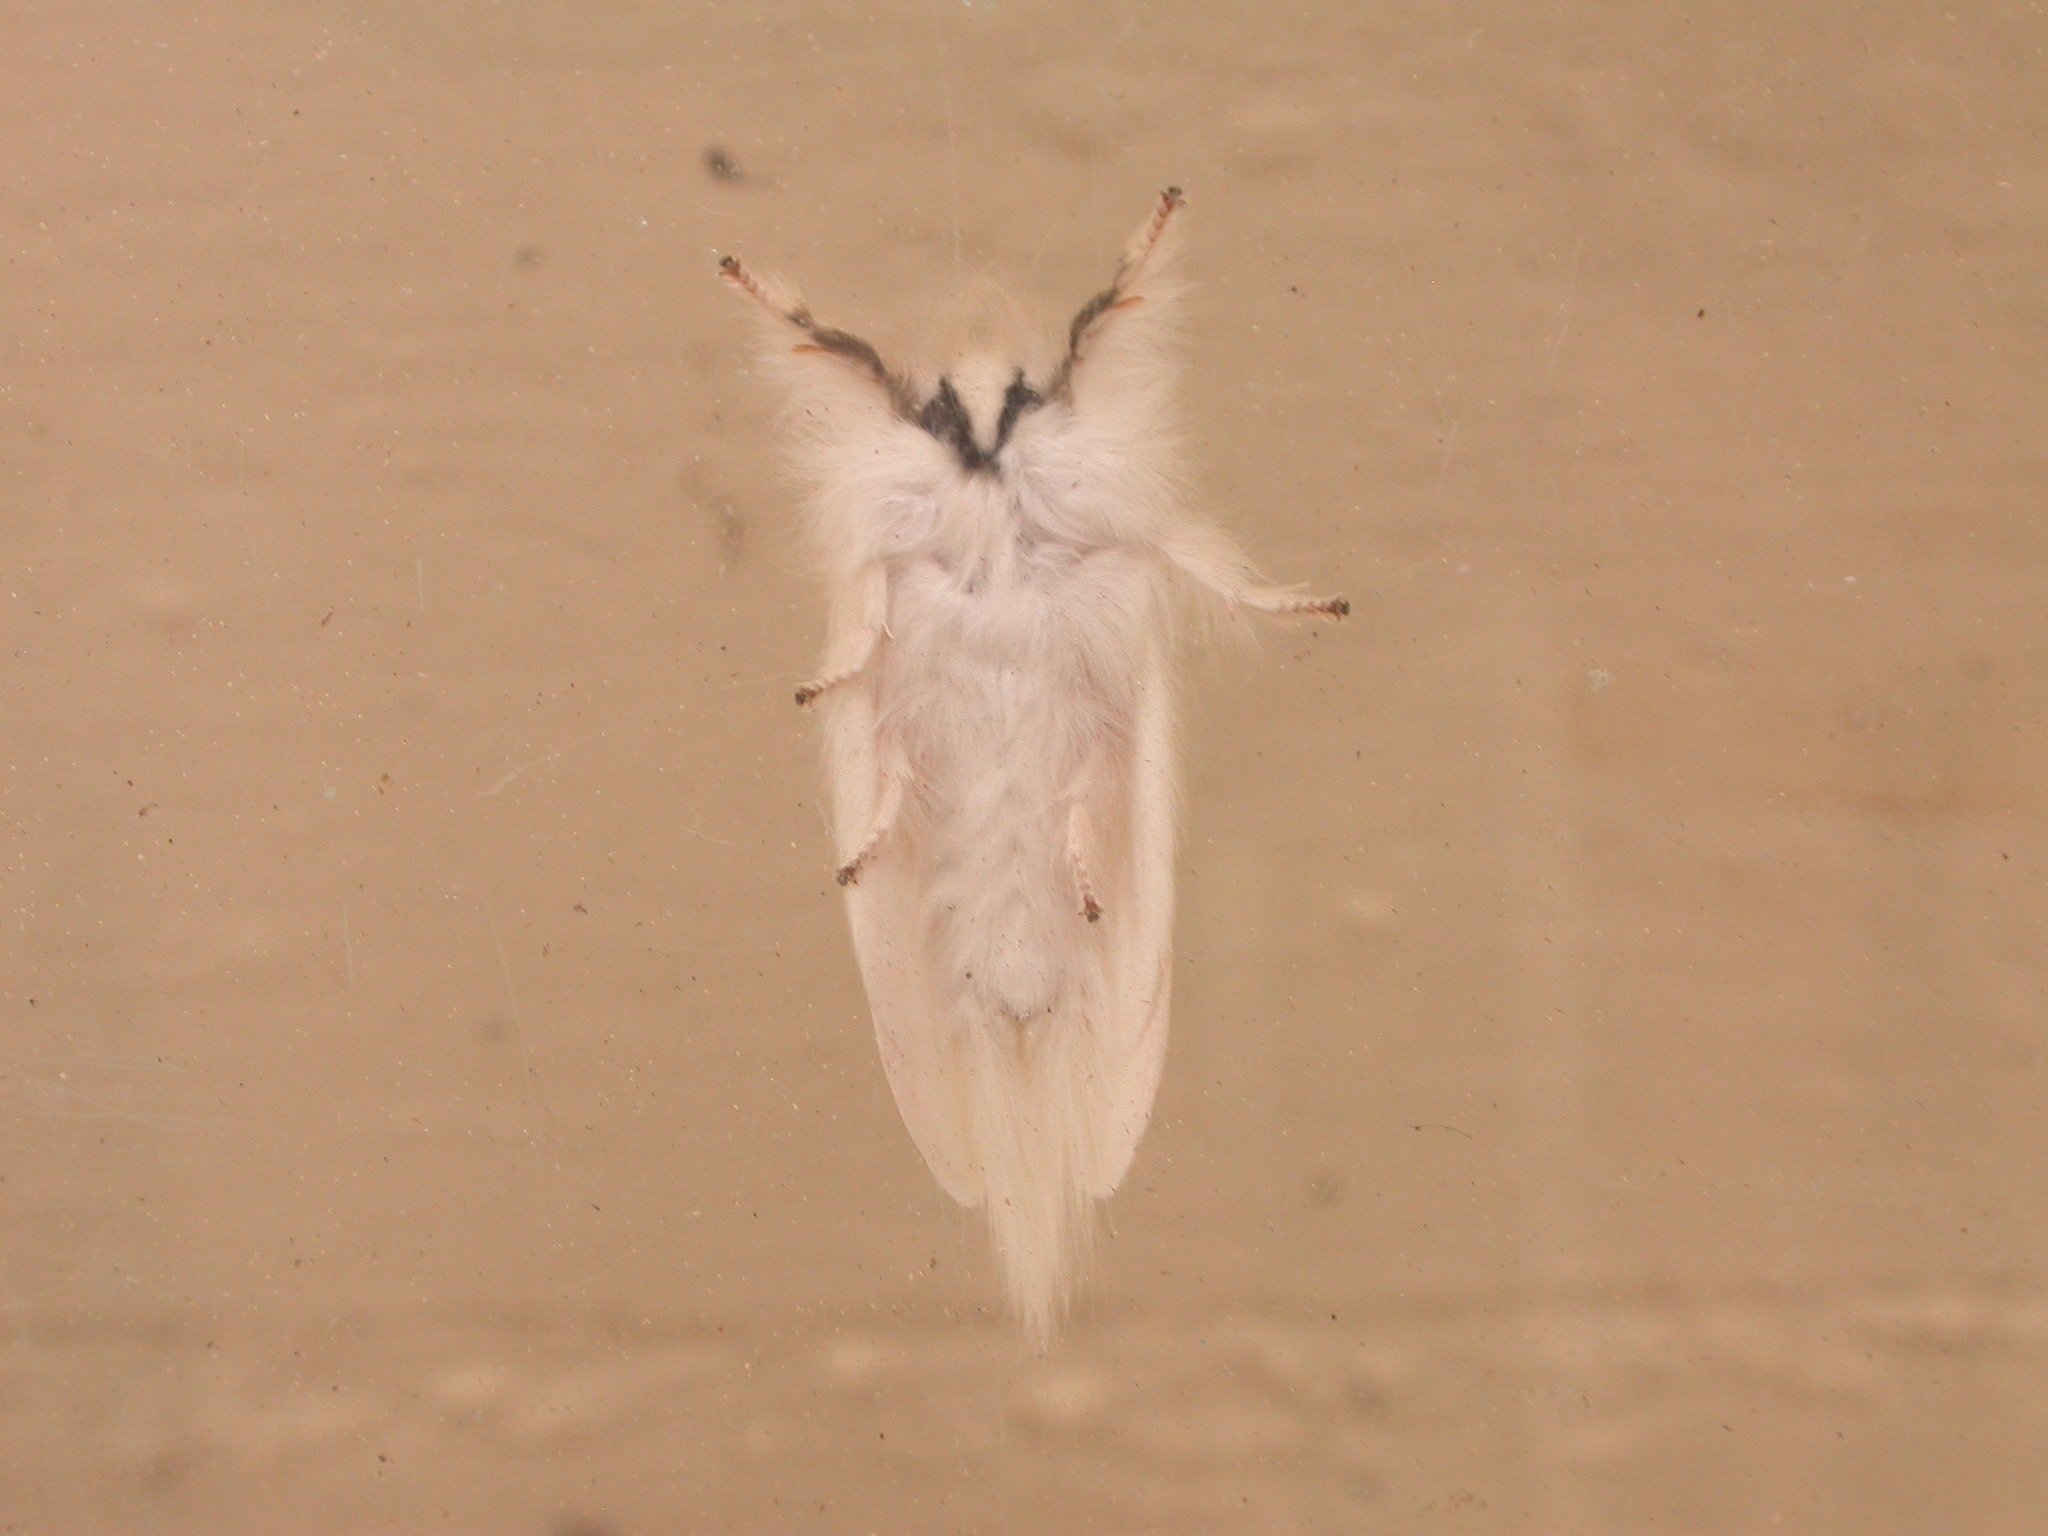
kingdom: Animalia
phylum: Arthropoda
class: Insecta
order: Lepidoptera
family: Notodontidae
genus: Trichiocercus
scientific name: Trichiocercus sparshalli
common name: Long-tailed satin
